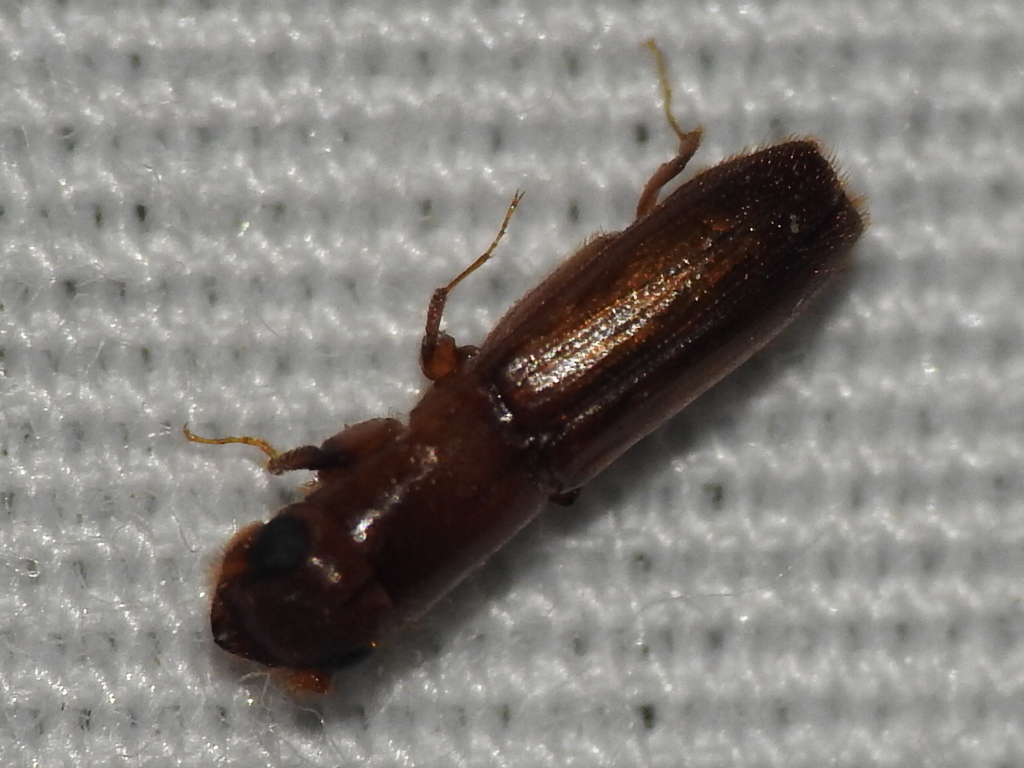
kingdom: Animalia
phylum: Arthropoda
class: Insecta
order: Coleoptera
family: Curculionidae
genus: Euplatypus
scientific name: Euplatypus compositus
